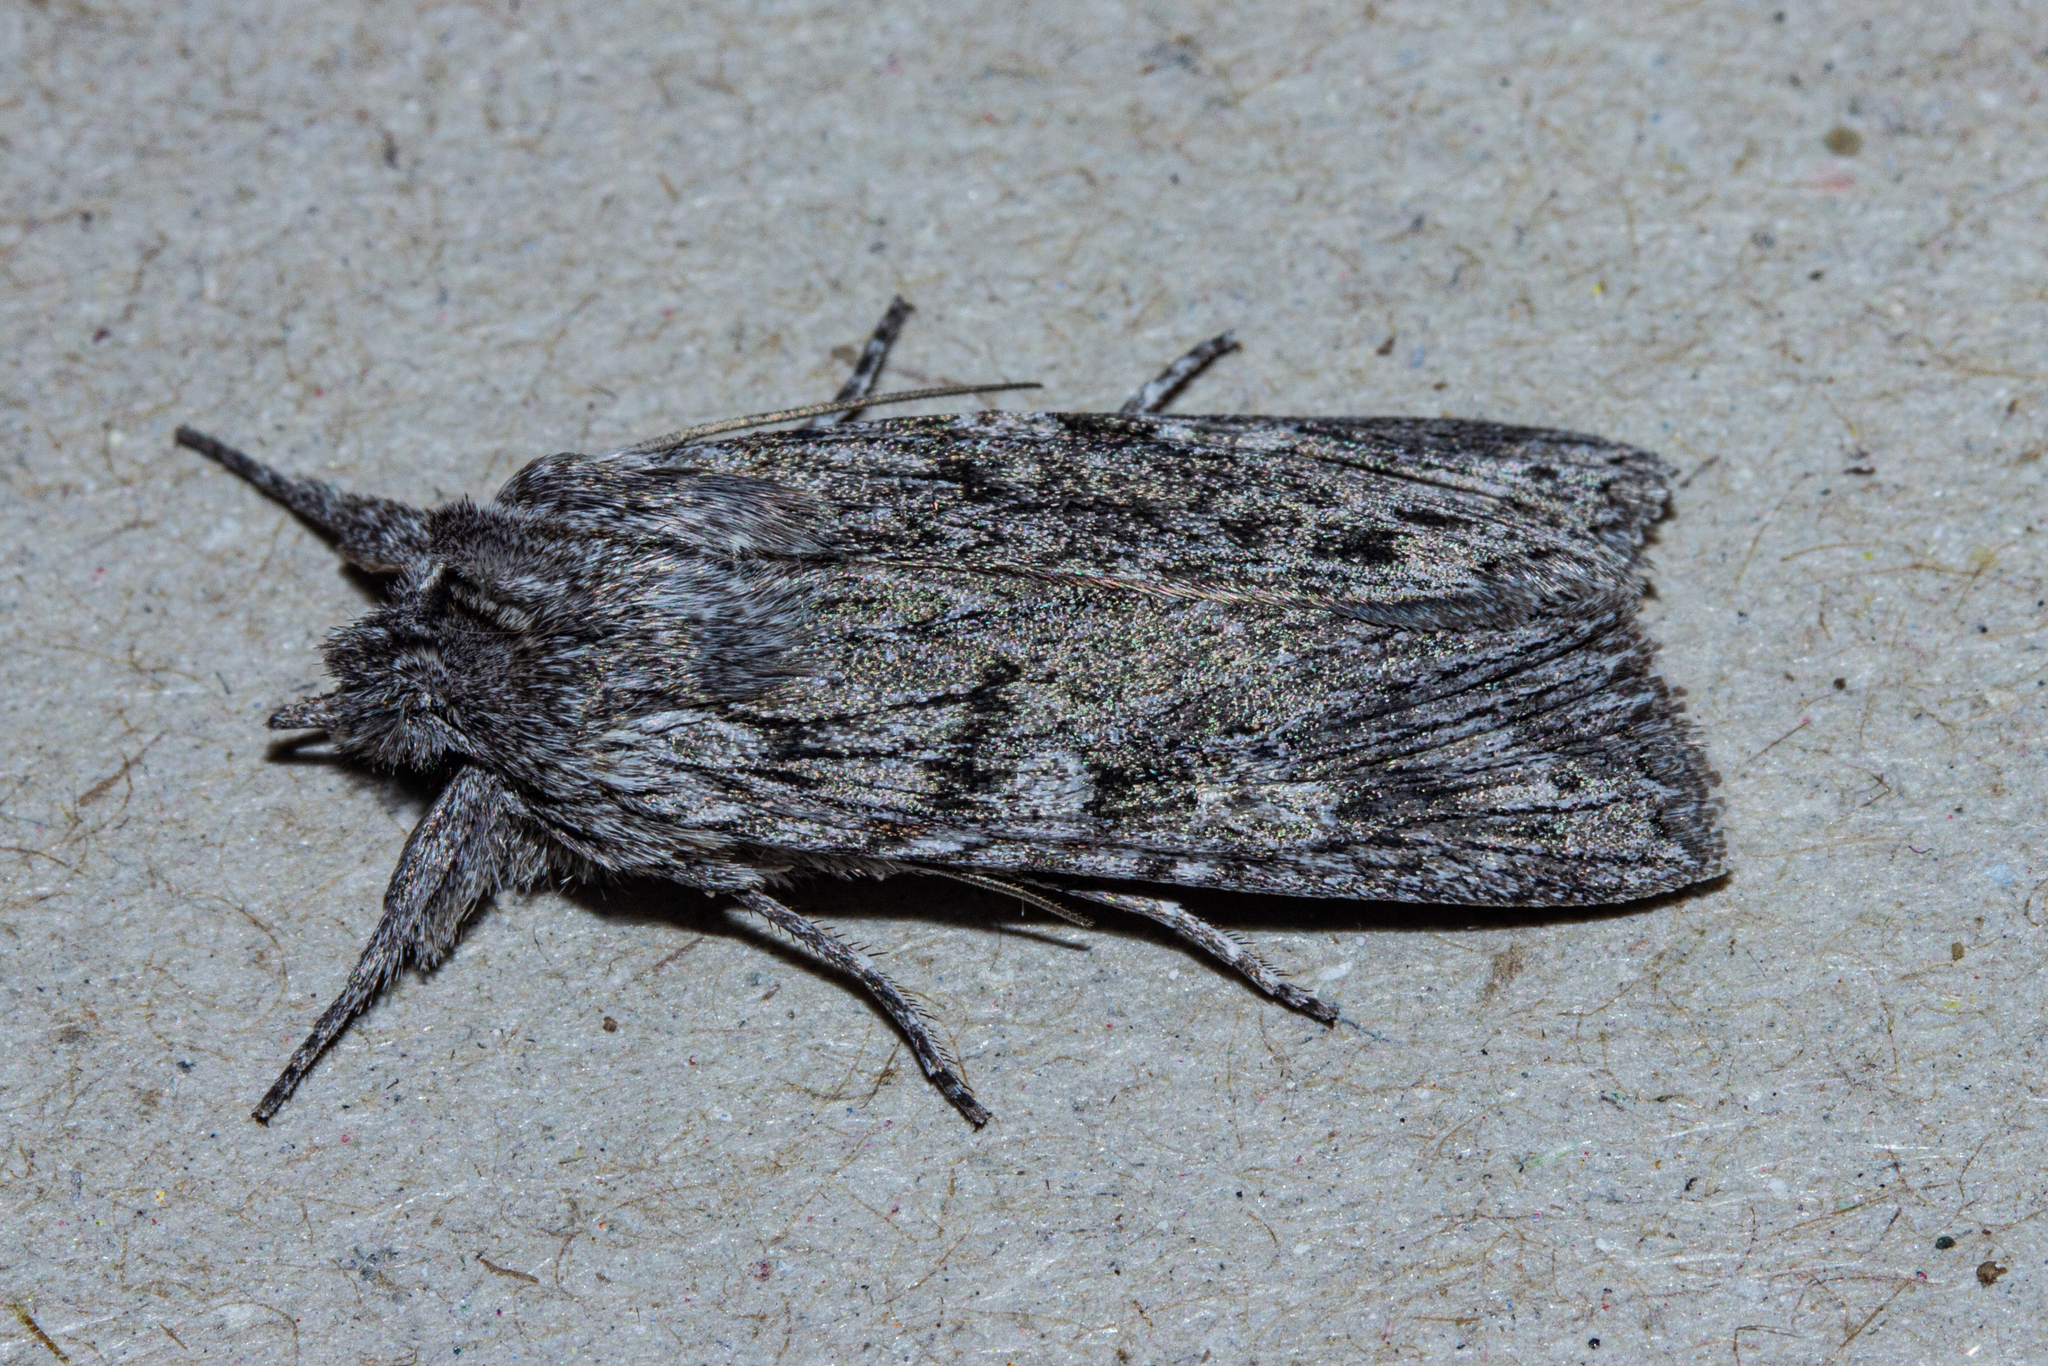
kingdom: Animalia
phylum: Arthropoda
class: Insecta
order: Lepidoptera
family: Noctuidae
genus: Physetica
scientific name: Physetica phricias
